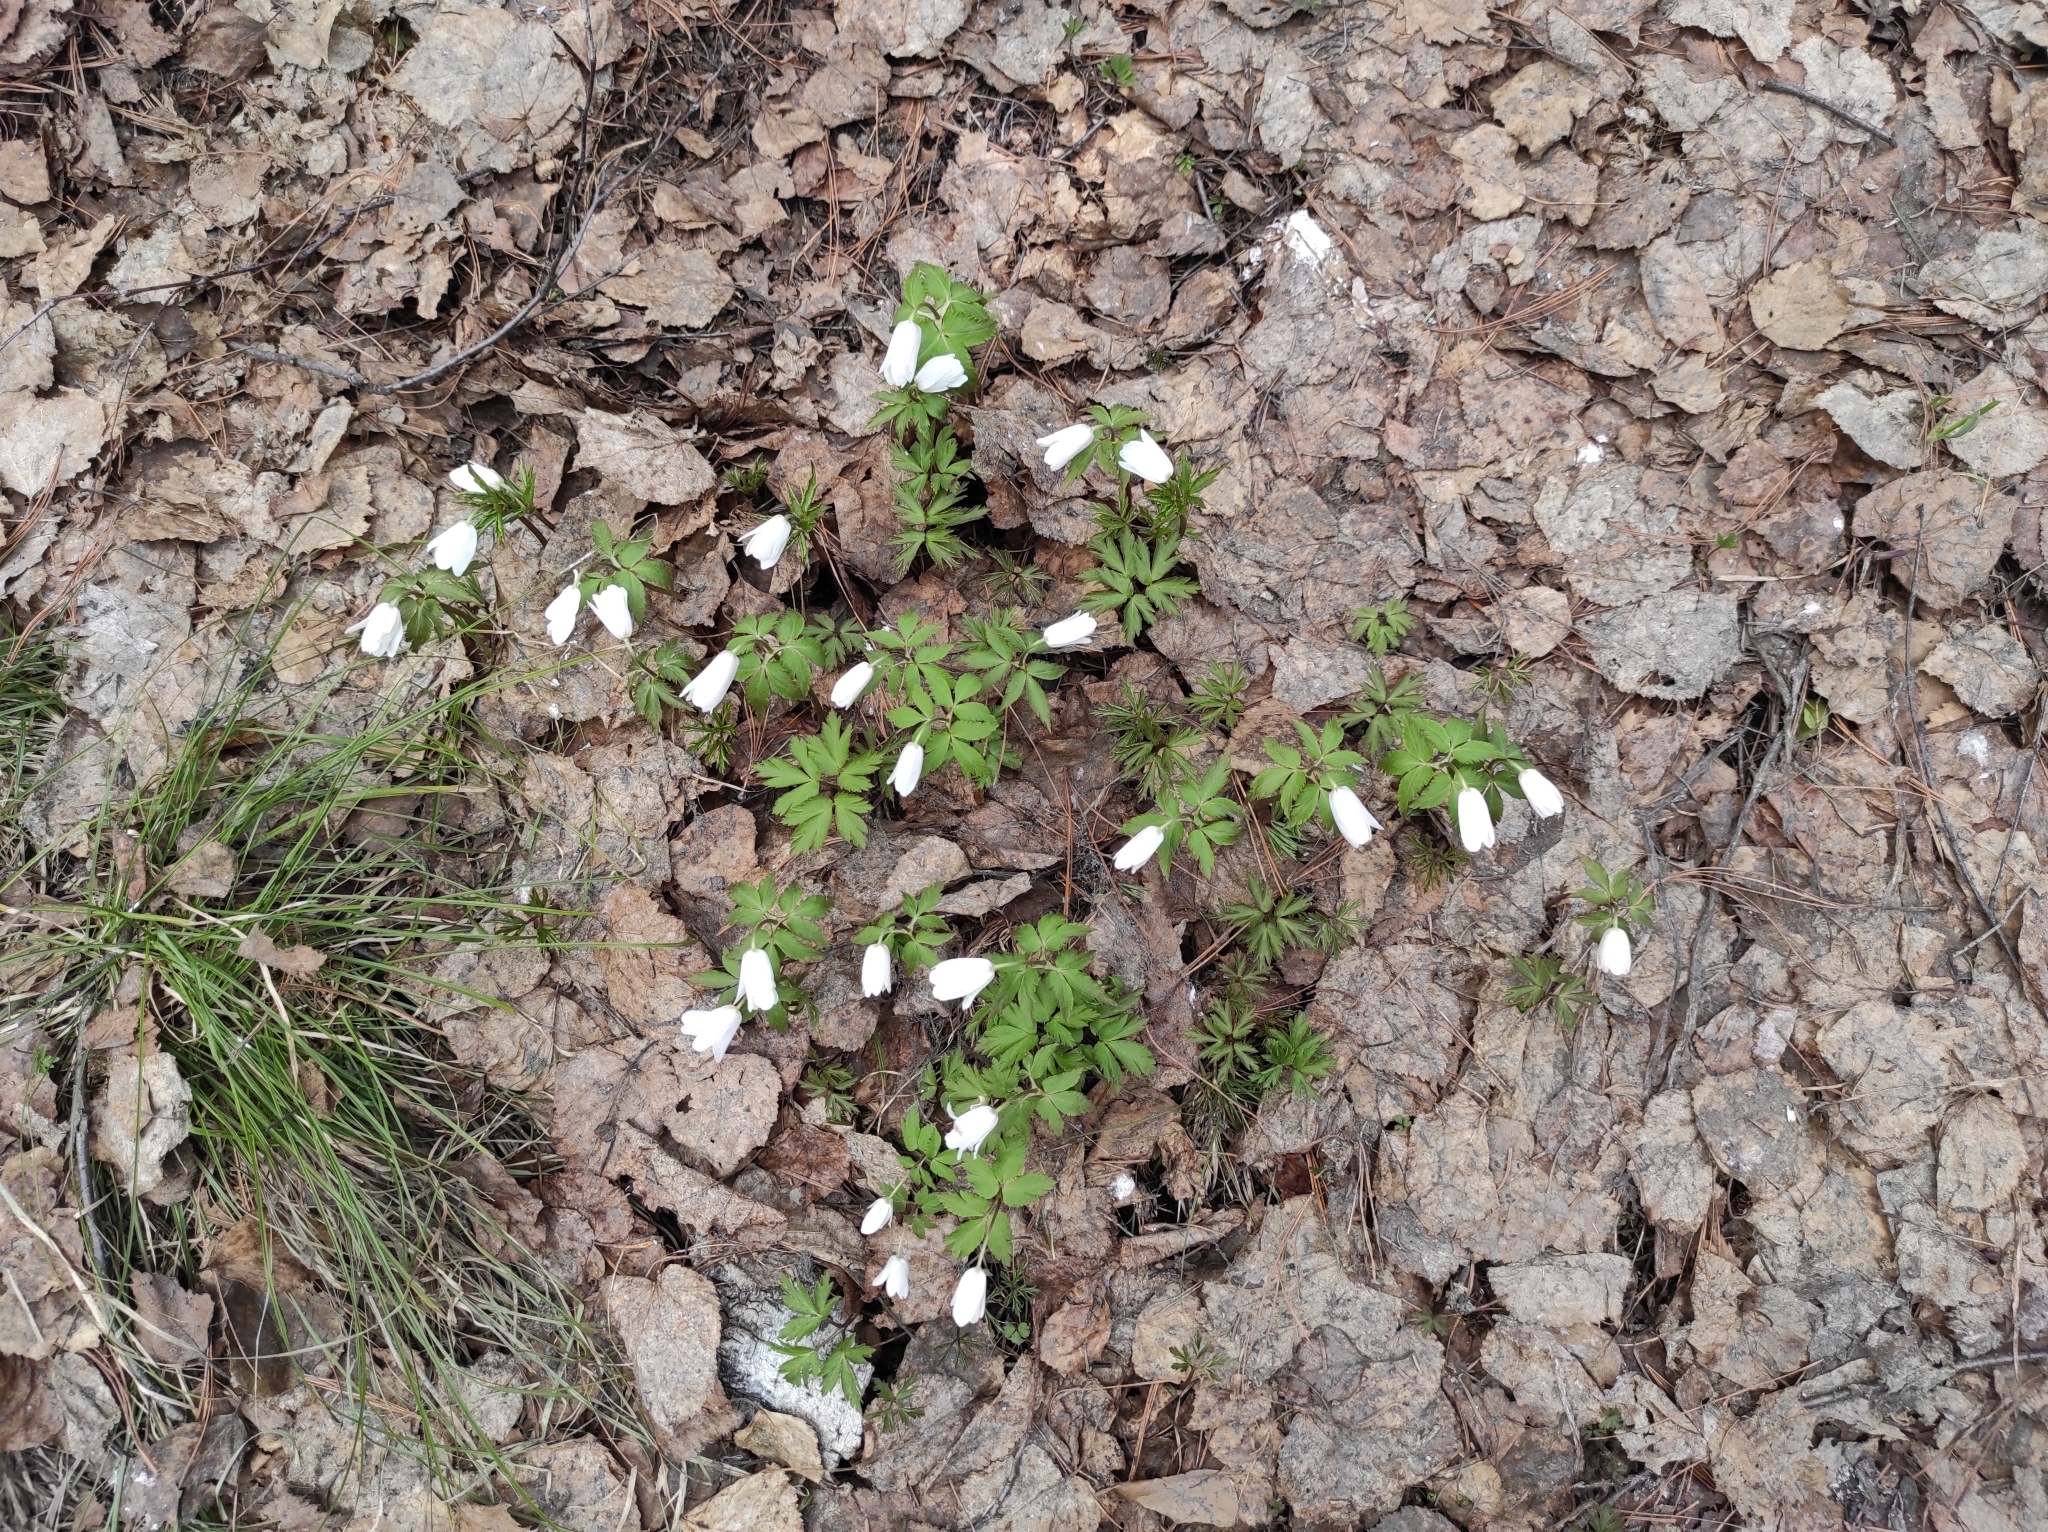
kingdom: Plantae
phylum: Tracheophyta
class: Magnoliopsida
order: Ranunculales
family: Ranunculaceae
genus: Anemone
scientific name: Anemone altaica
